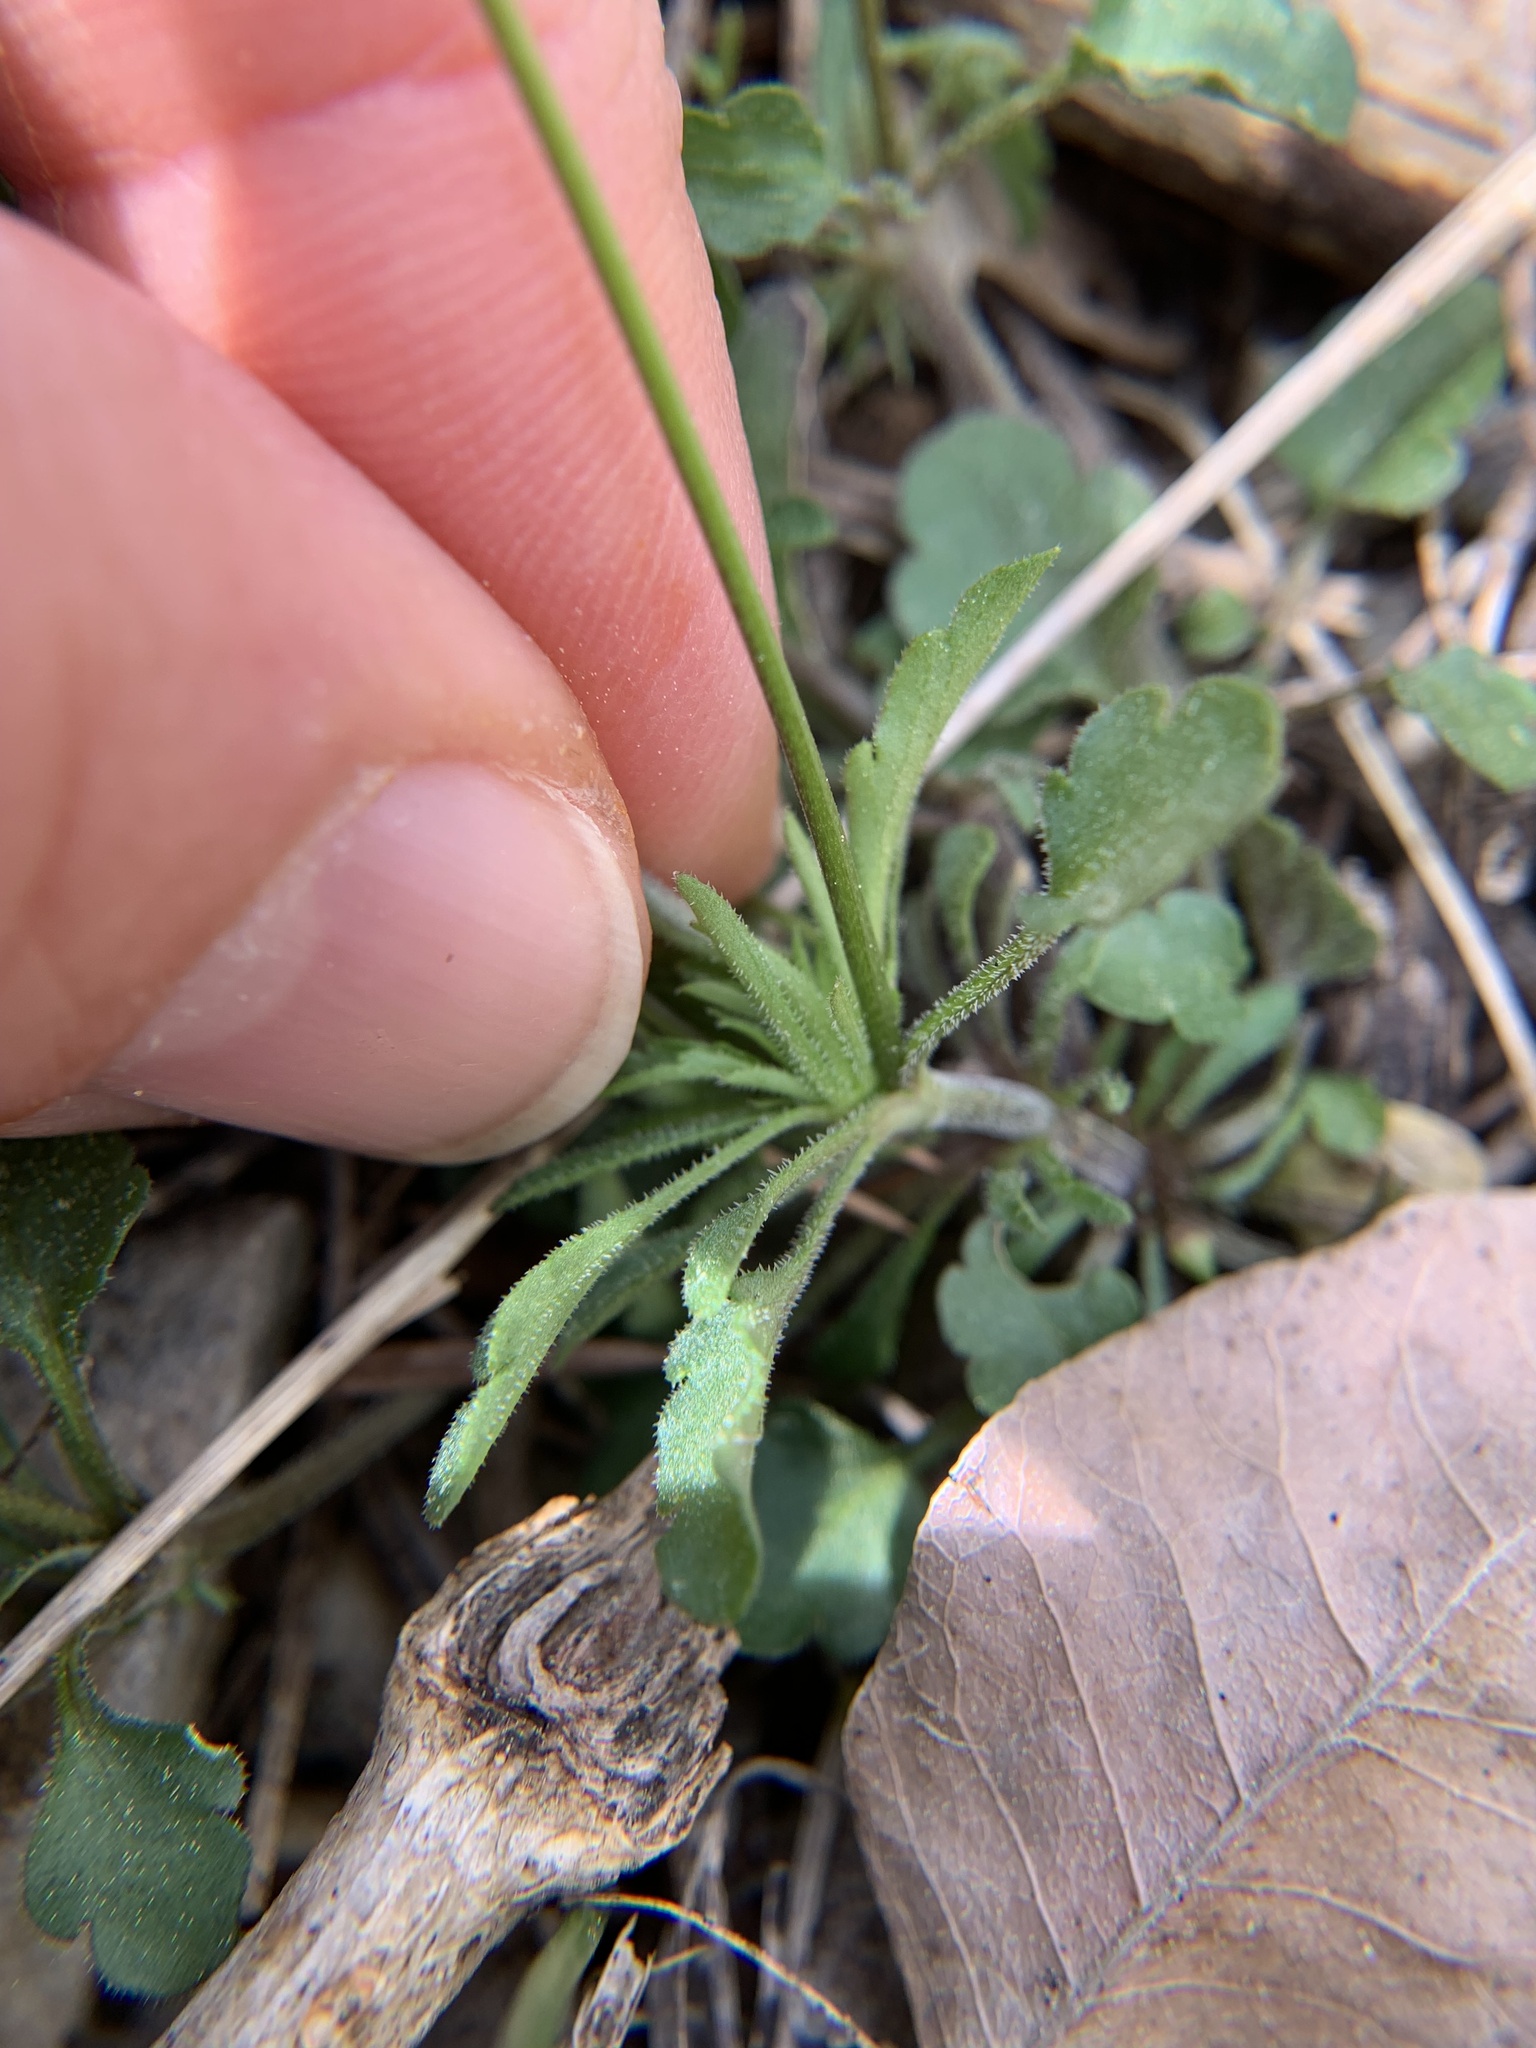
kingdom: Plantae
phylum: Tracheophyta
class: Magnoliopsida
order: Malpighiales
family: Violaceae
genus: Viola
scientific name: Viola kitaibeliana
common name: Dwarf pansy
